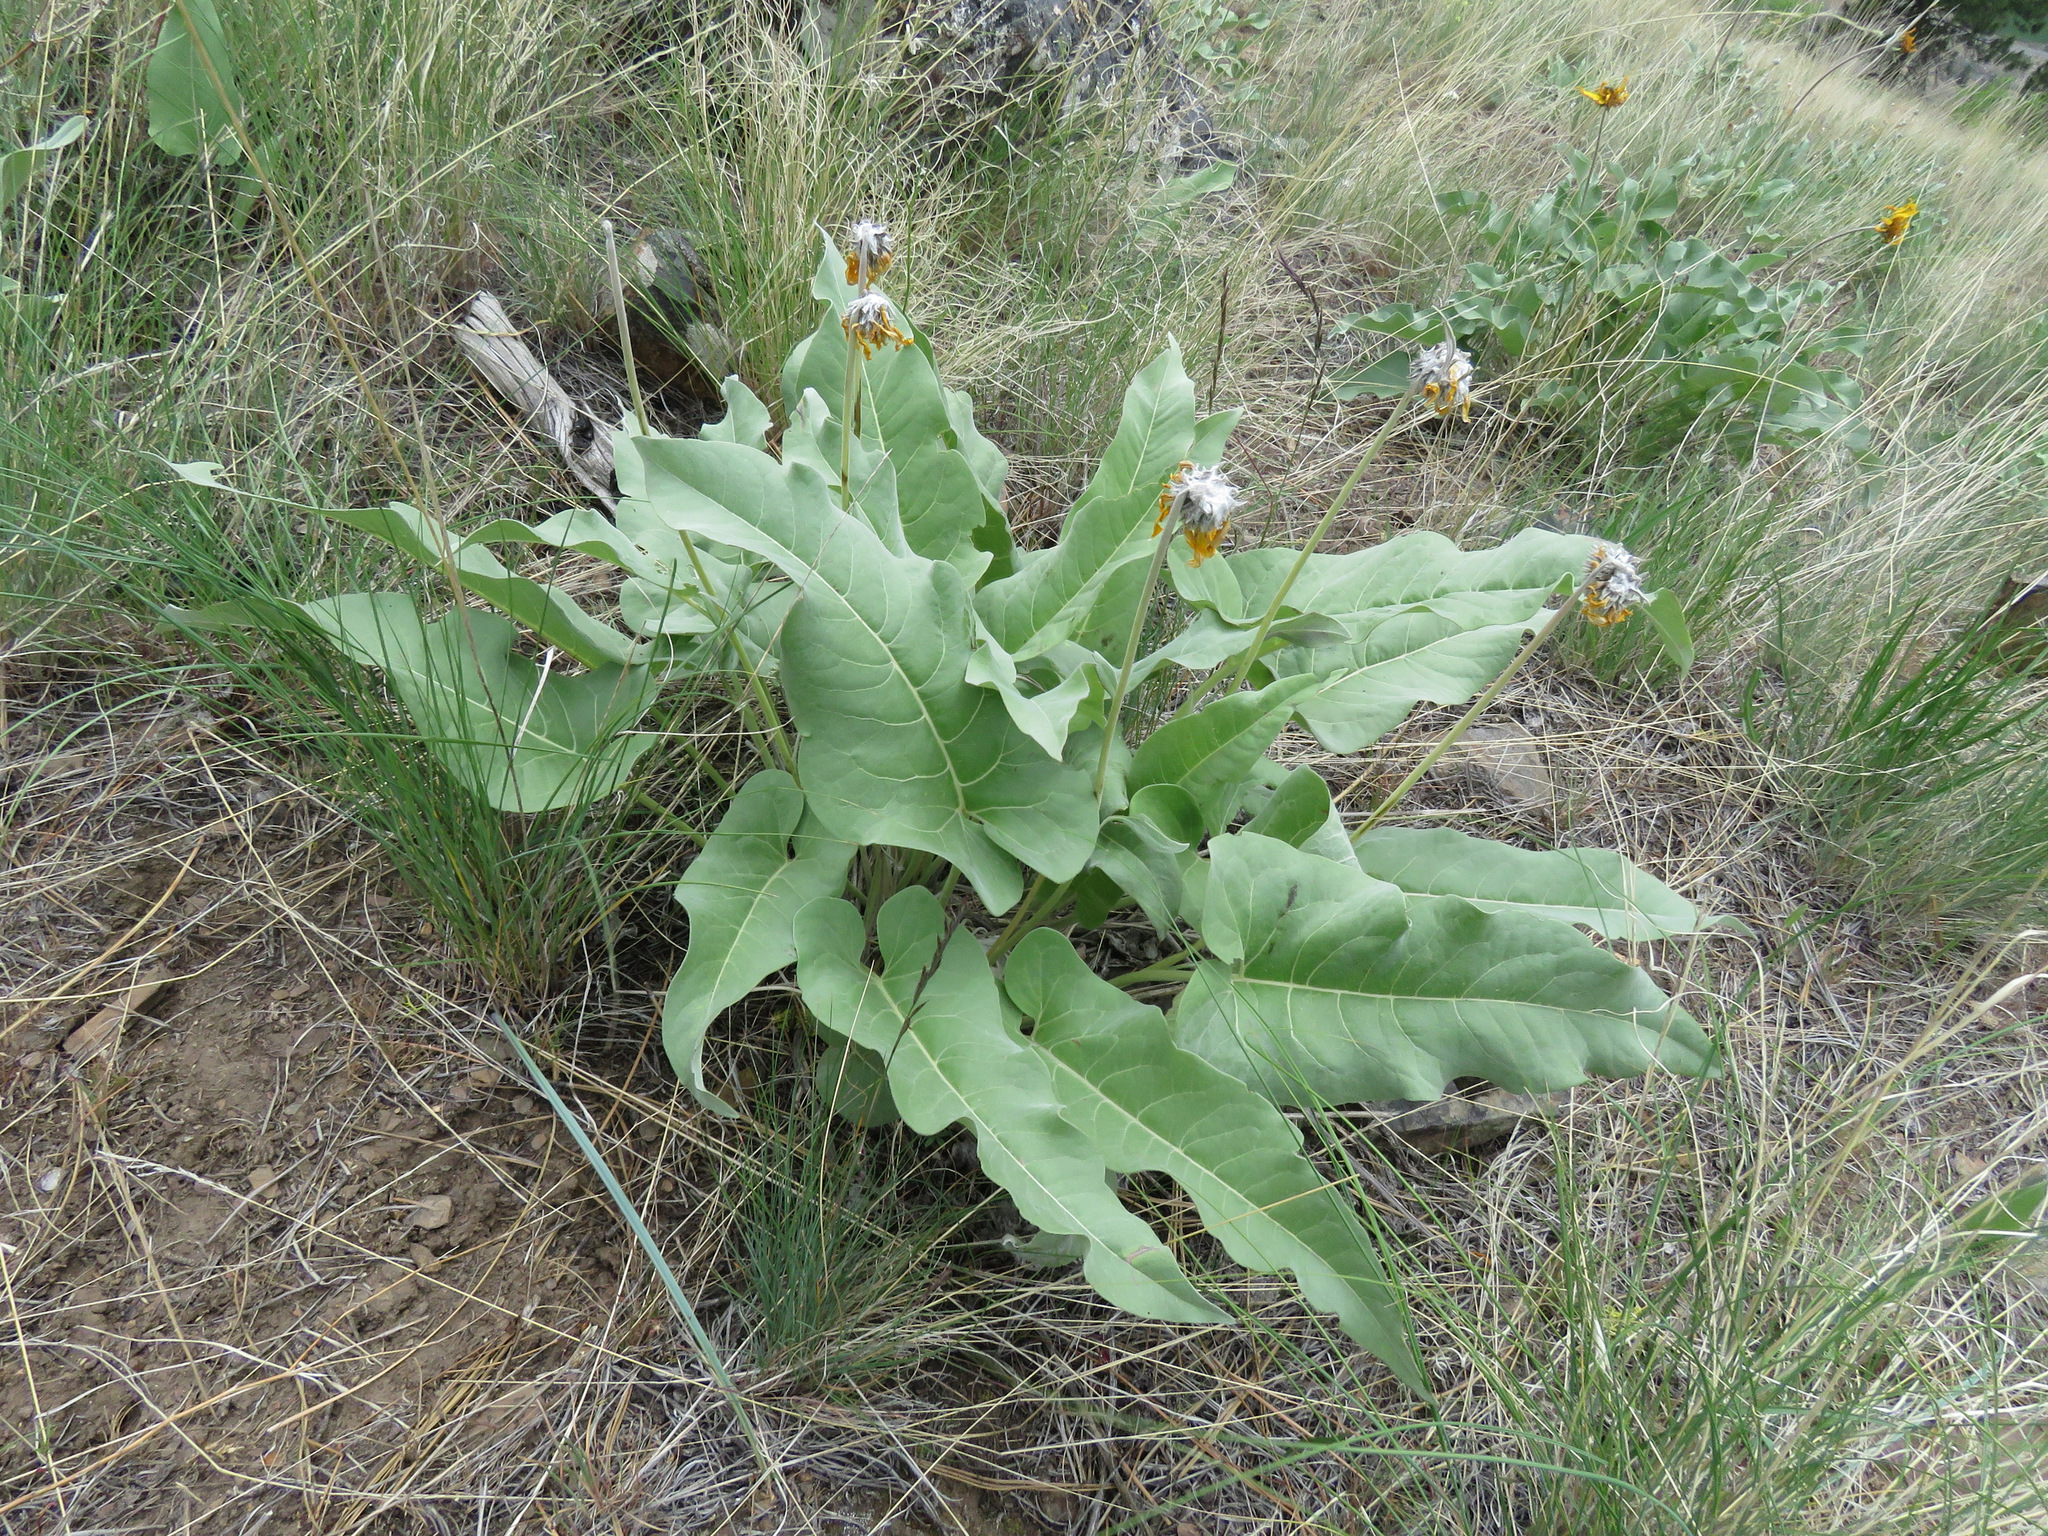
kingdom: Plantae
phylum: Tracheophyta
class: Magnoliopsida
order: Asterales
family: Asteraceae
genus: Wyethia
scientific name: Wyethia sagittata
